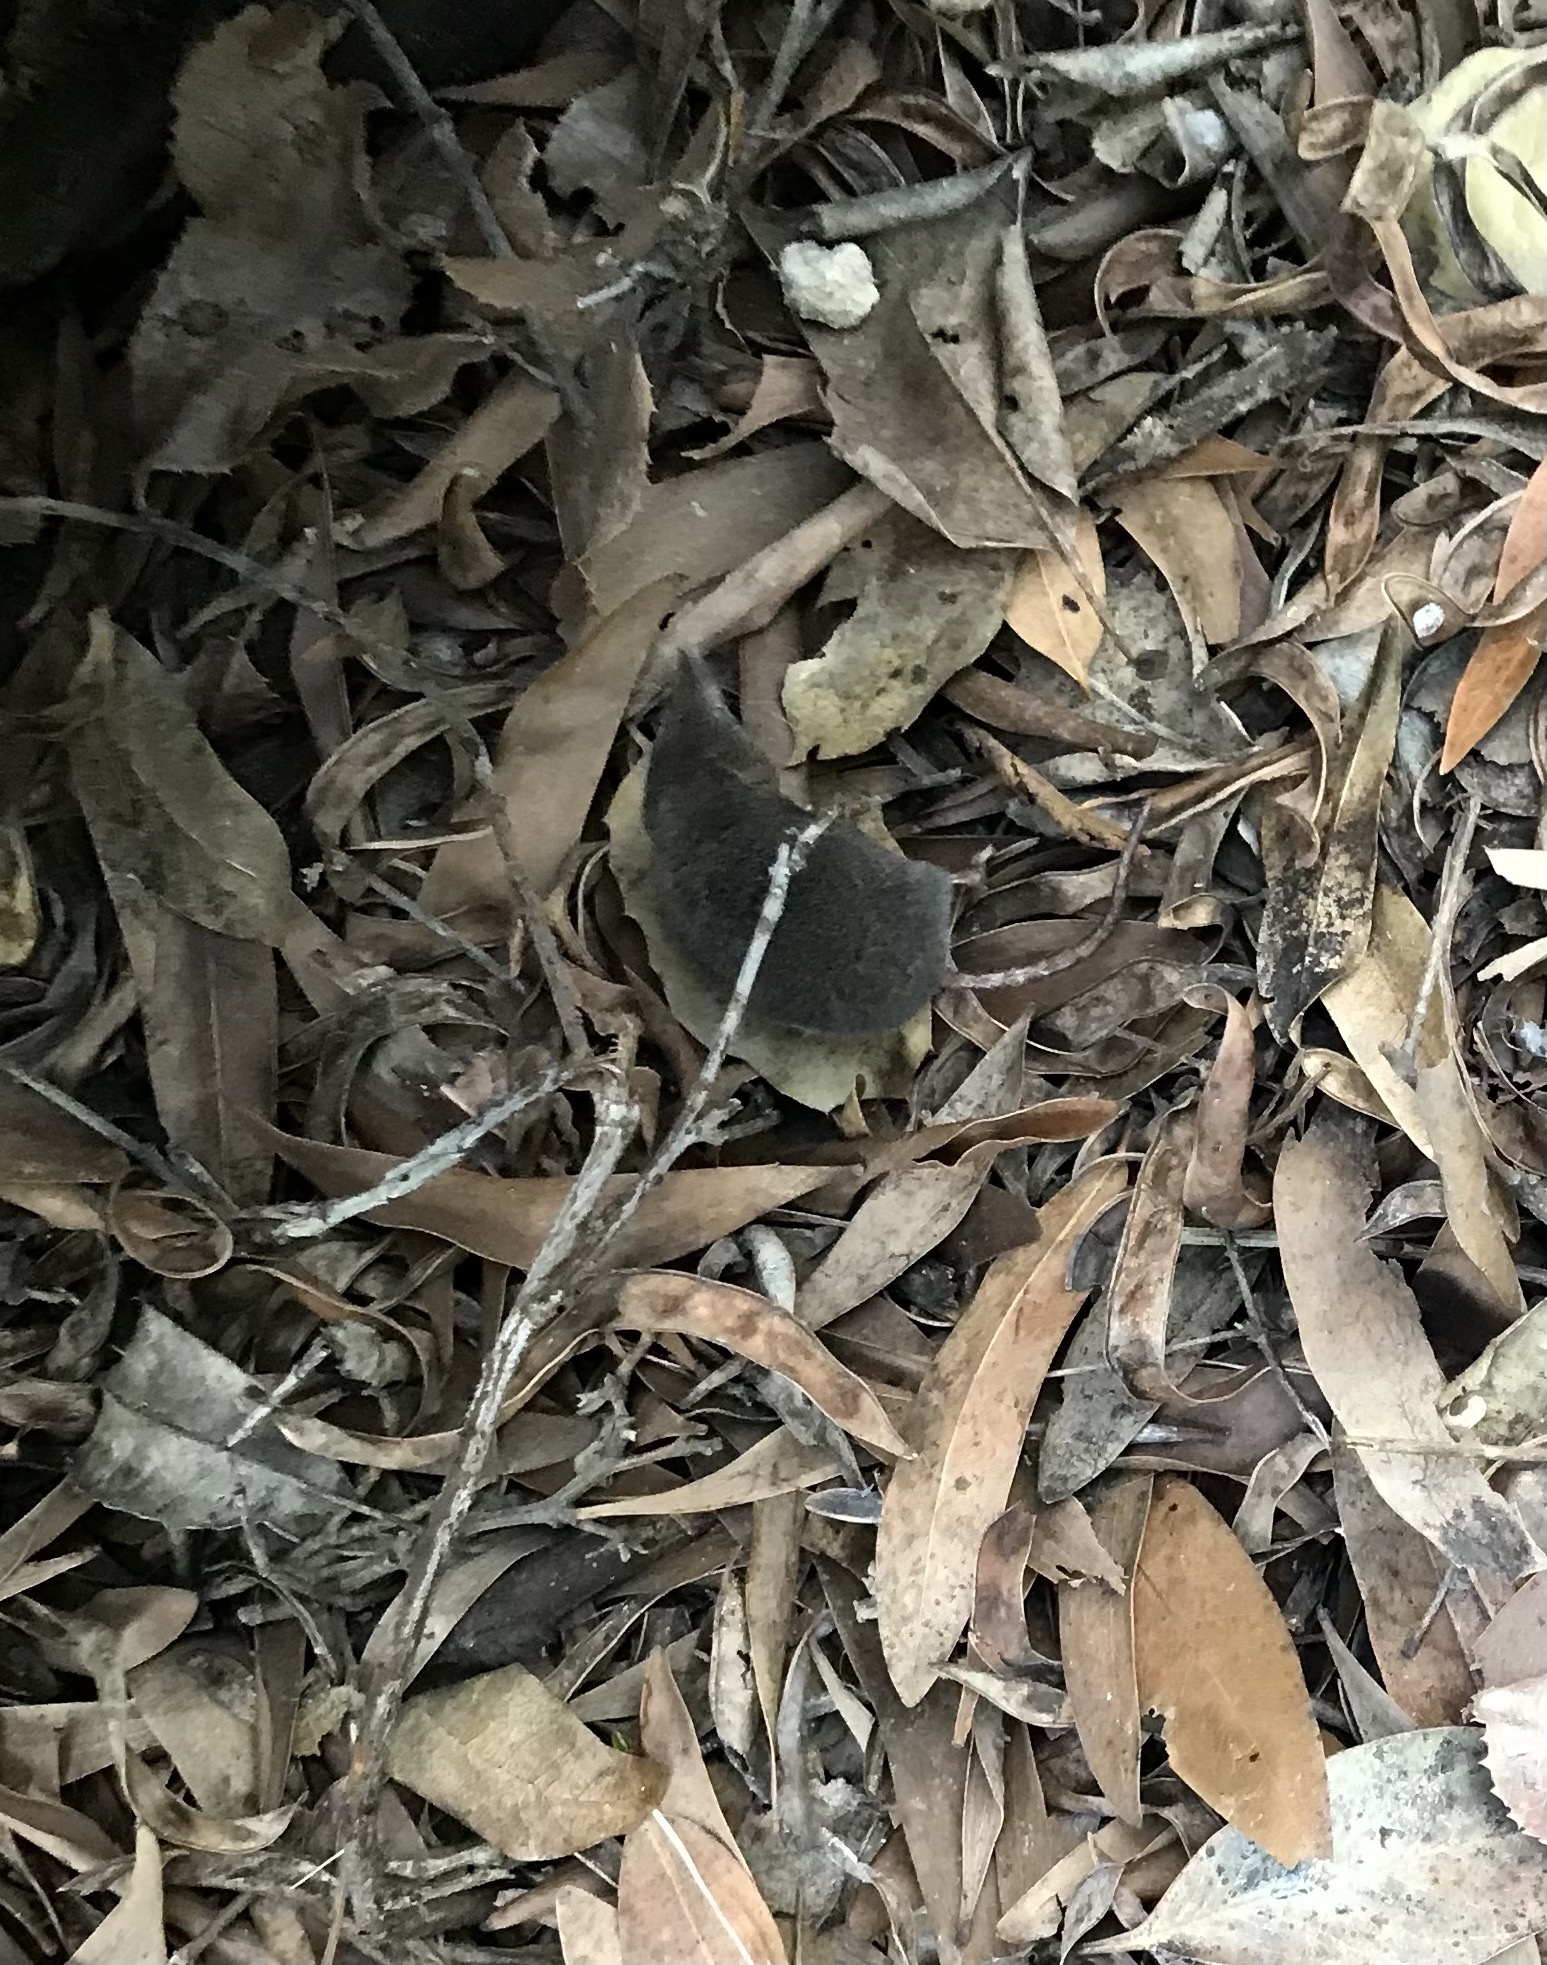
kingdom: Animalia
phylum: Chordata
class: Mammalia
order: Soricomorpha
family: Soricidae
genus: Sorex
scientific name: Sorex ornatus
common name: Ornate shrew
